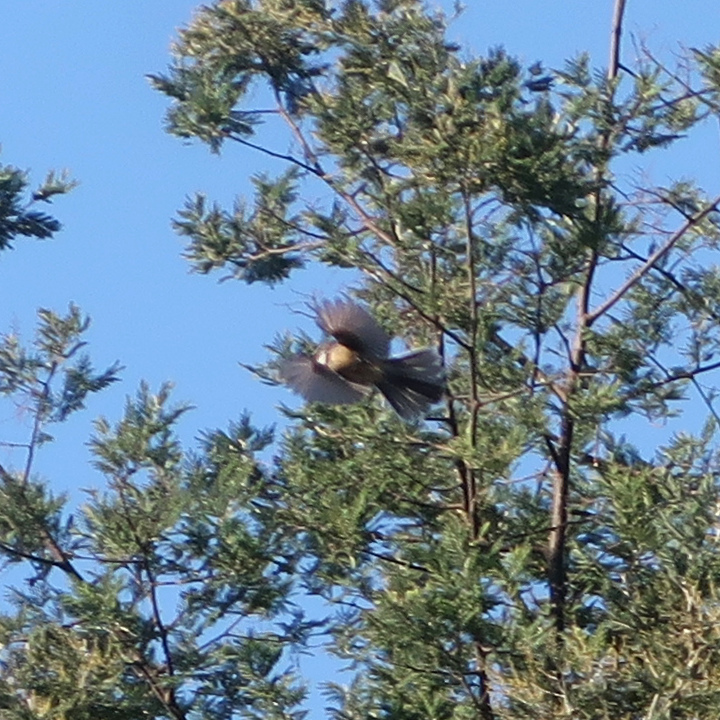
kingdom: Animalia
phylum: Chordata
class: Aves
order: Passeriformes
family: Rhipiduridae
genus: Rhipidura
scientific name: Rhipidura albiscapa
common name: Grey fantail
